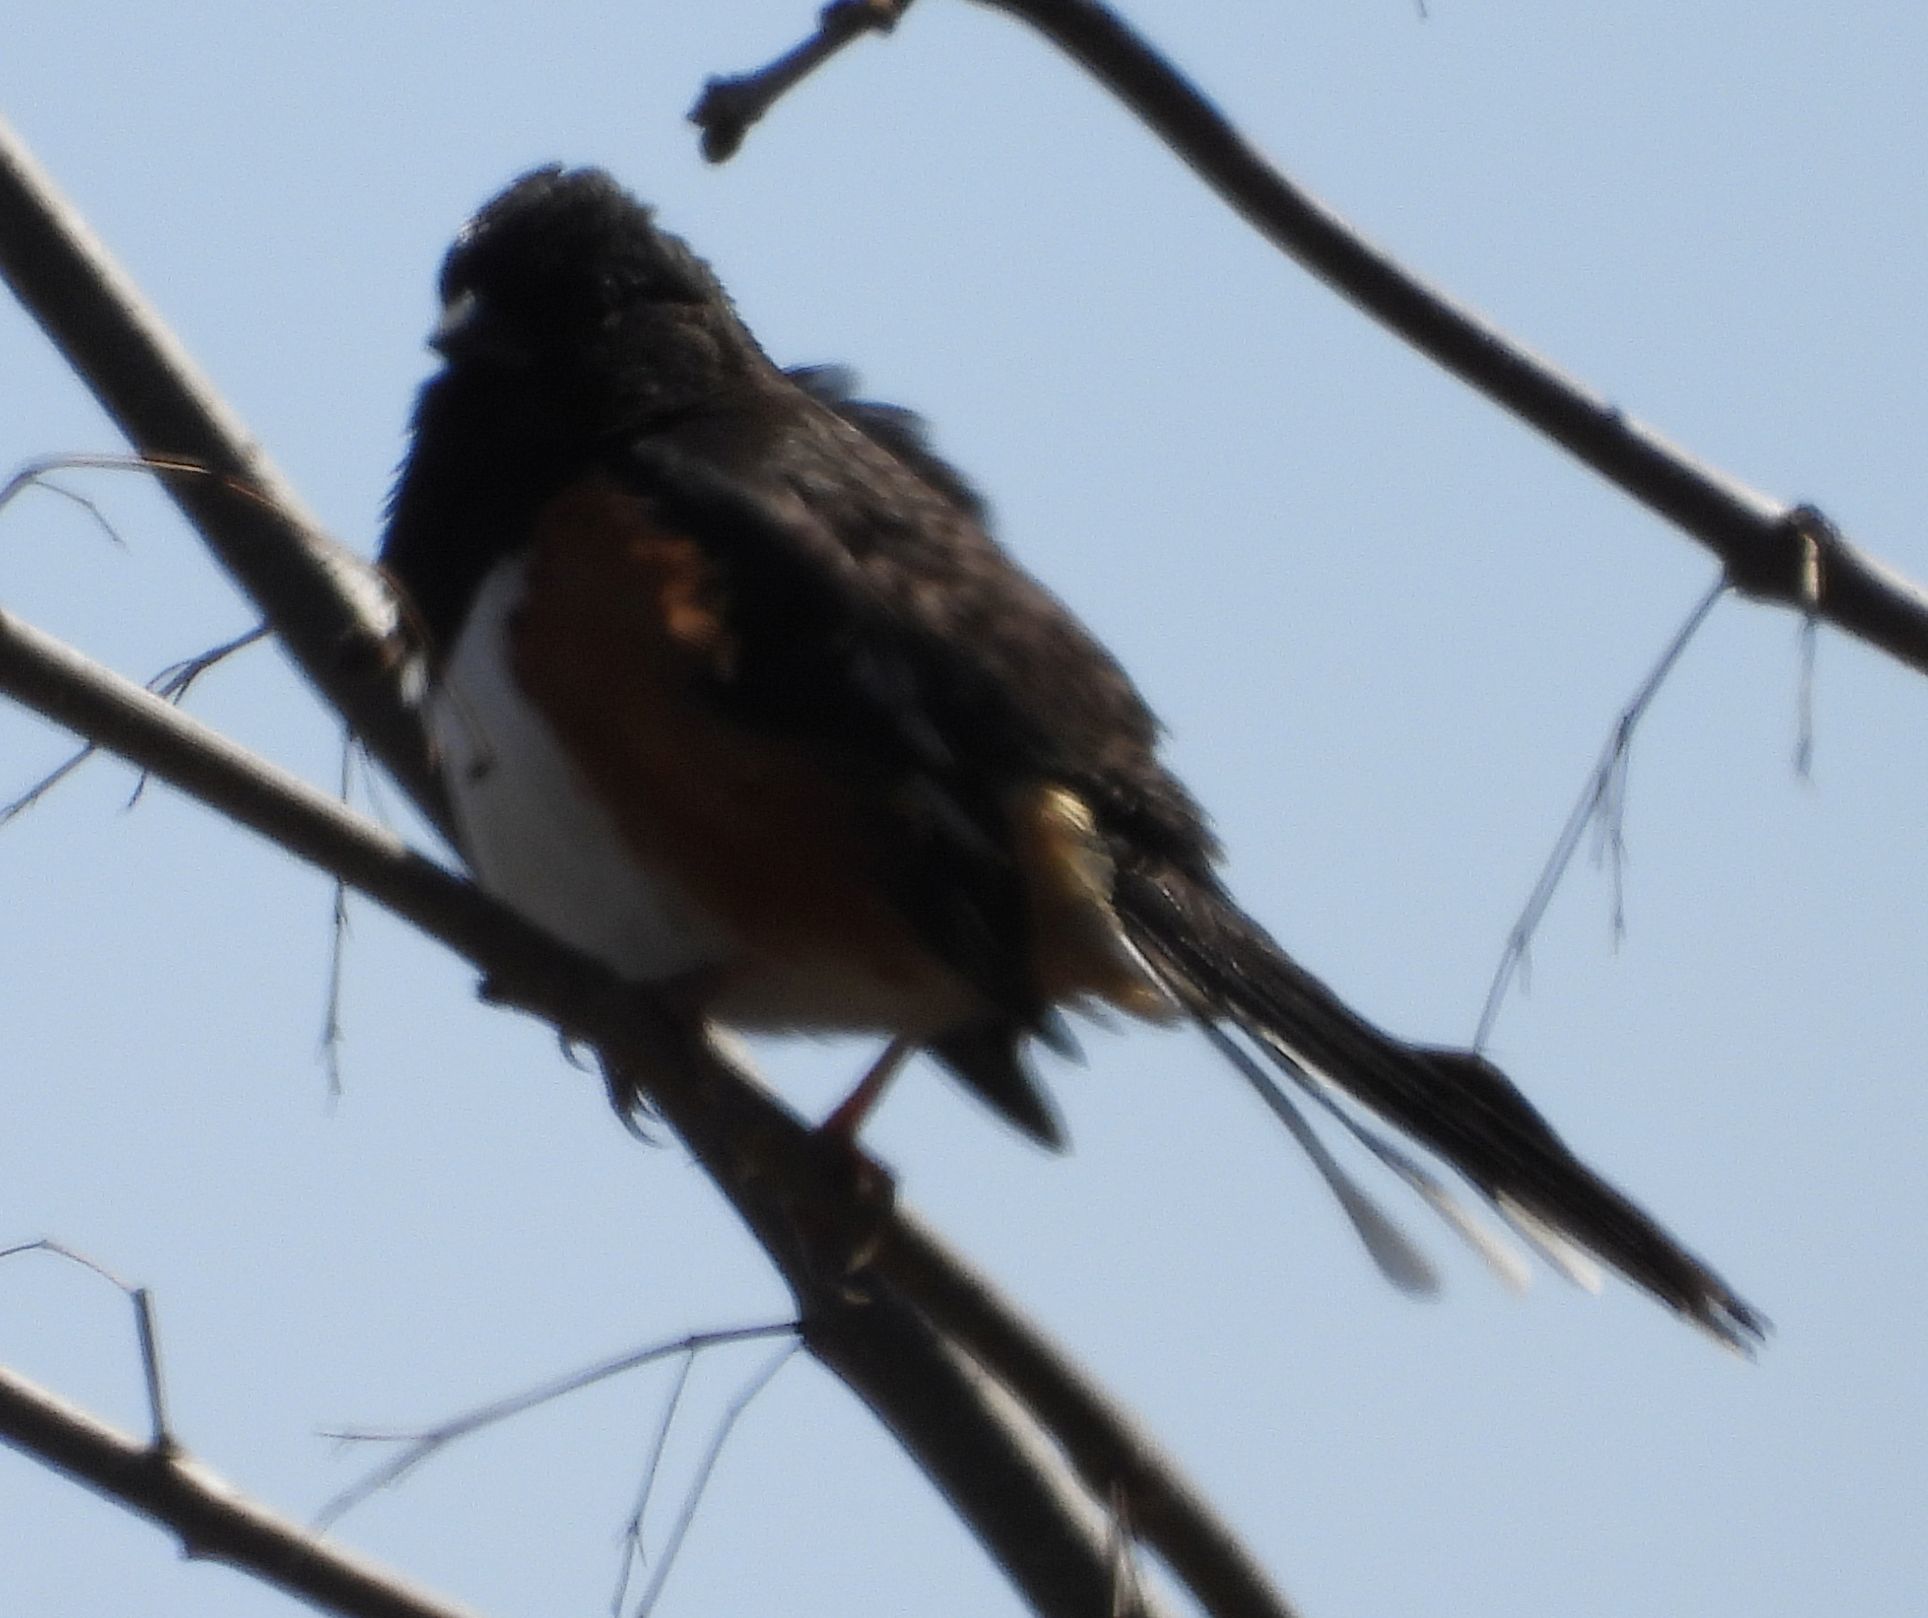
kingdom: Animalia
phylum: Chordata
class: Aves
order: Passeriformes
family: Passerellidae
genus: Pipilo
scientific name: Pipilo erythrophthalmus
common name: Eastern towhee
